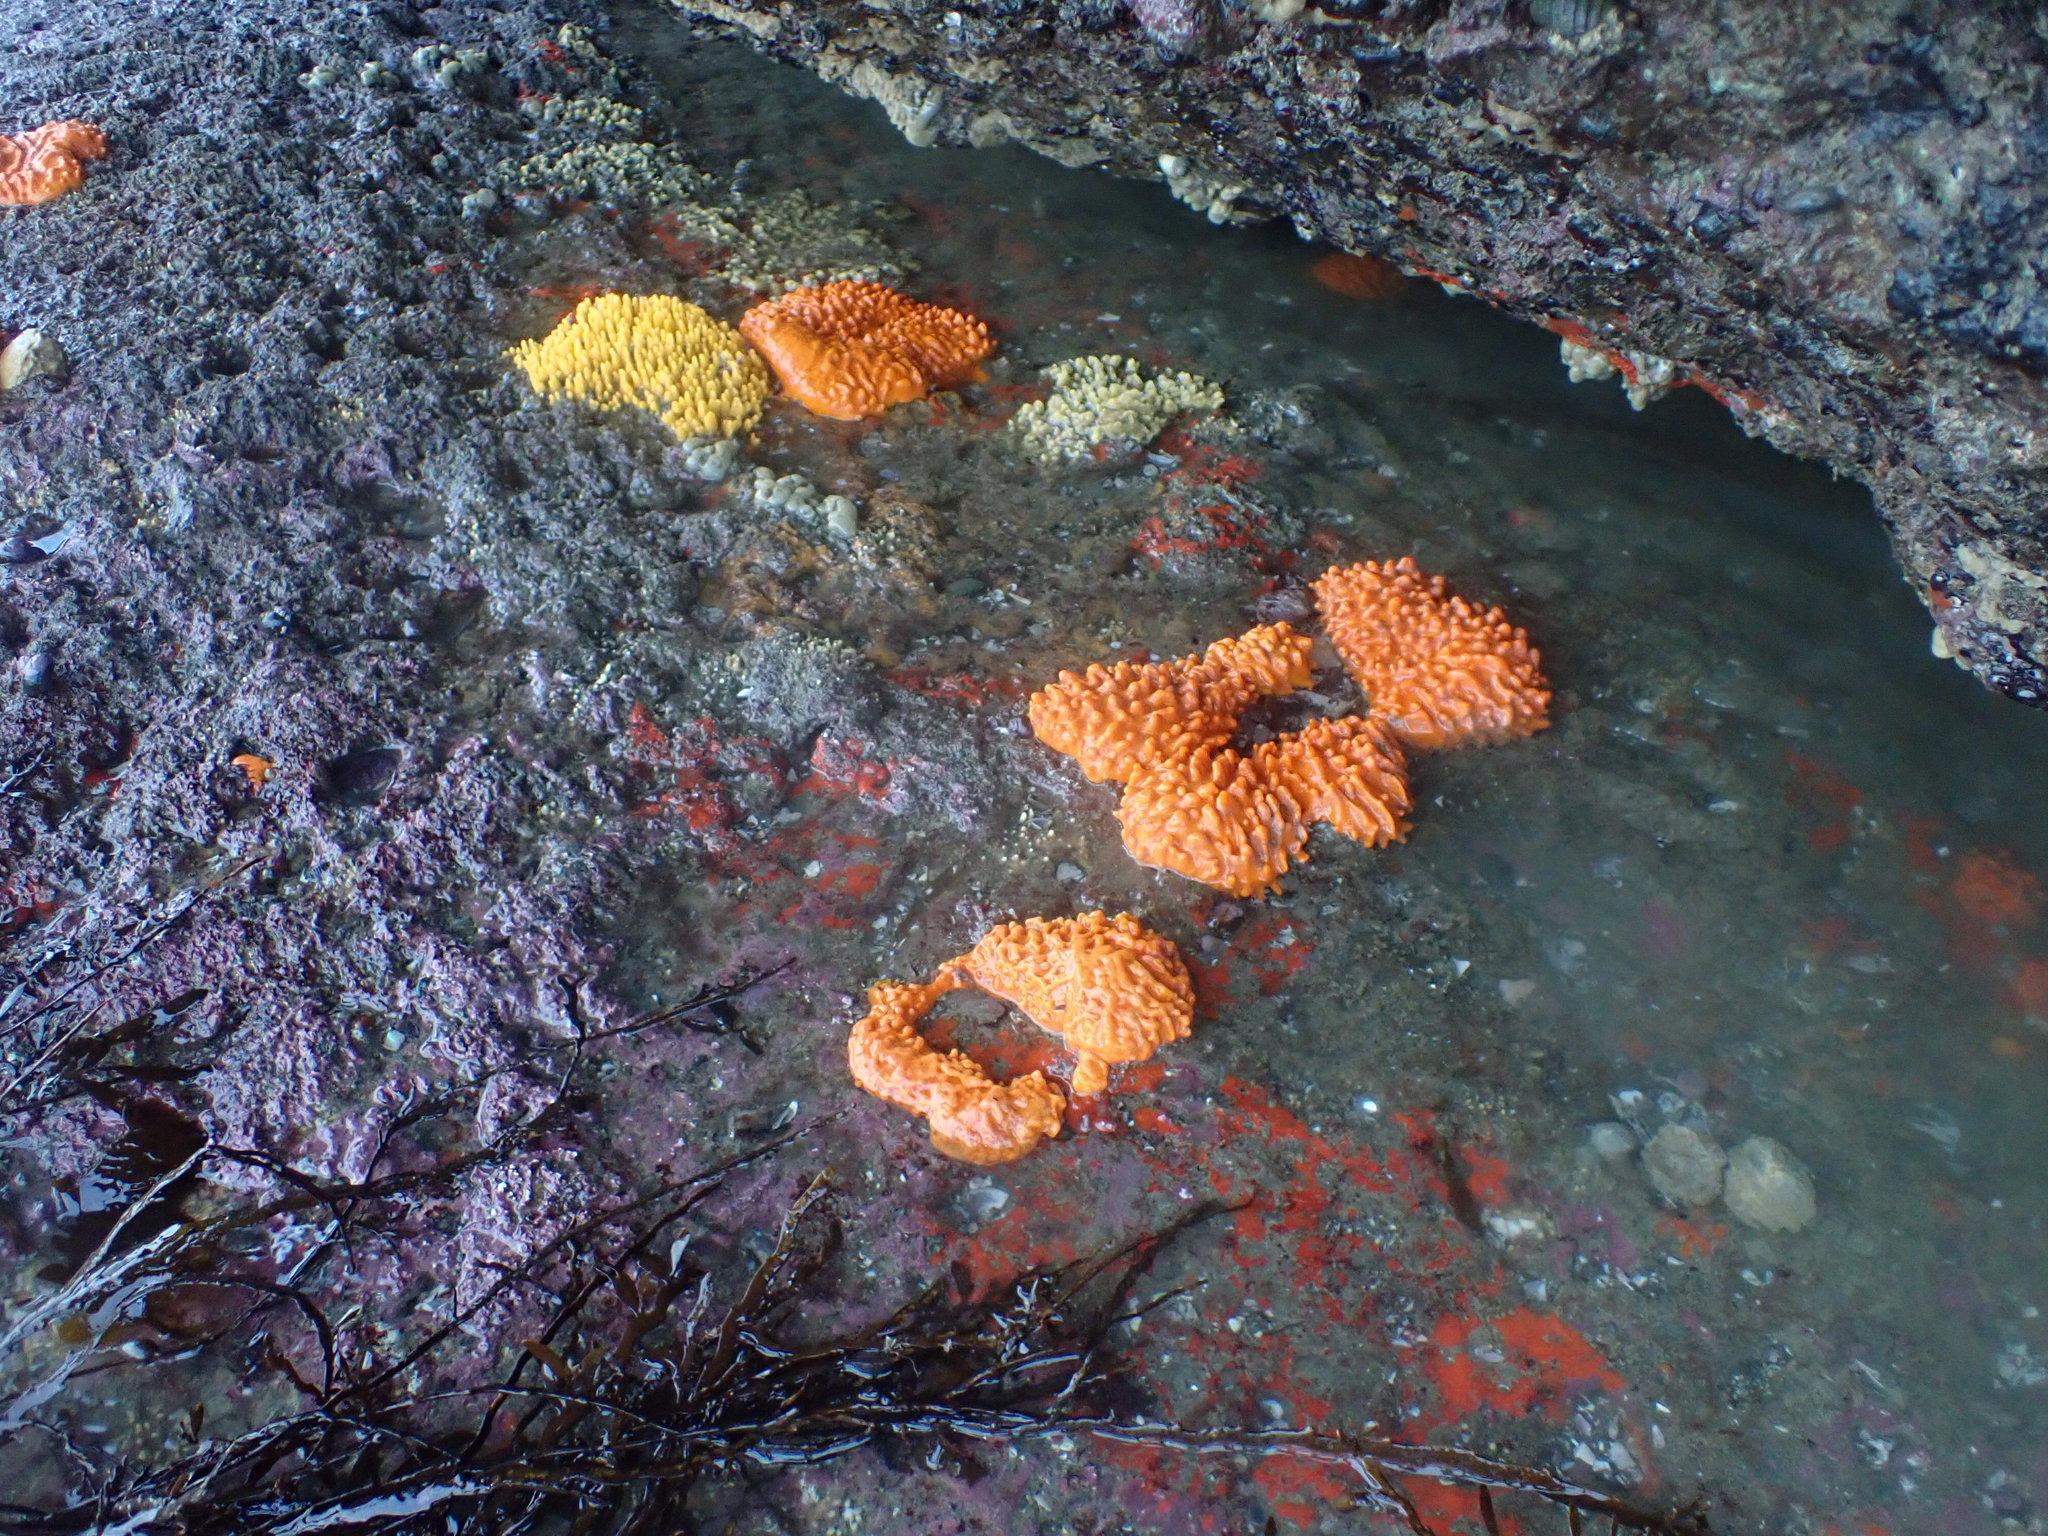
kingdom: Animalia
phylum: Porifera
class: Demospongiae
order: Polymastiida
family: Polymastiidae
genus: Polymastia
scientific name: Polymastia aurantia
